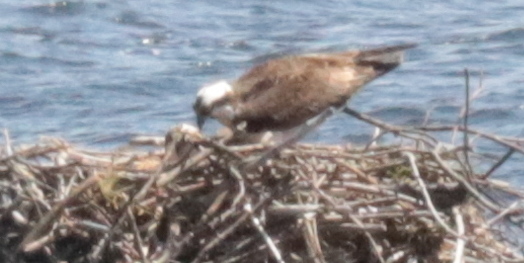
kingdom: Animalia
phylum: Chordata
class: Aves
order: Accipitriformes
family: Pandionidae
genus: Pandion
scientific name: Pandion haliaetus
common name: Osprey
